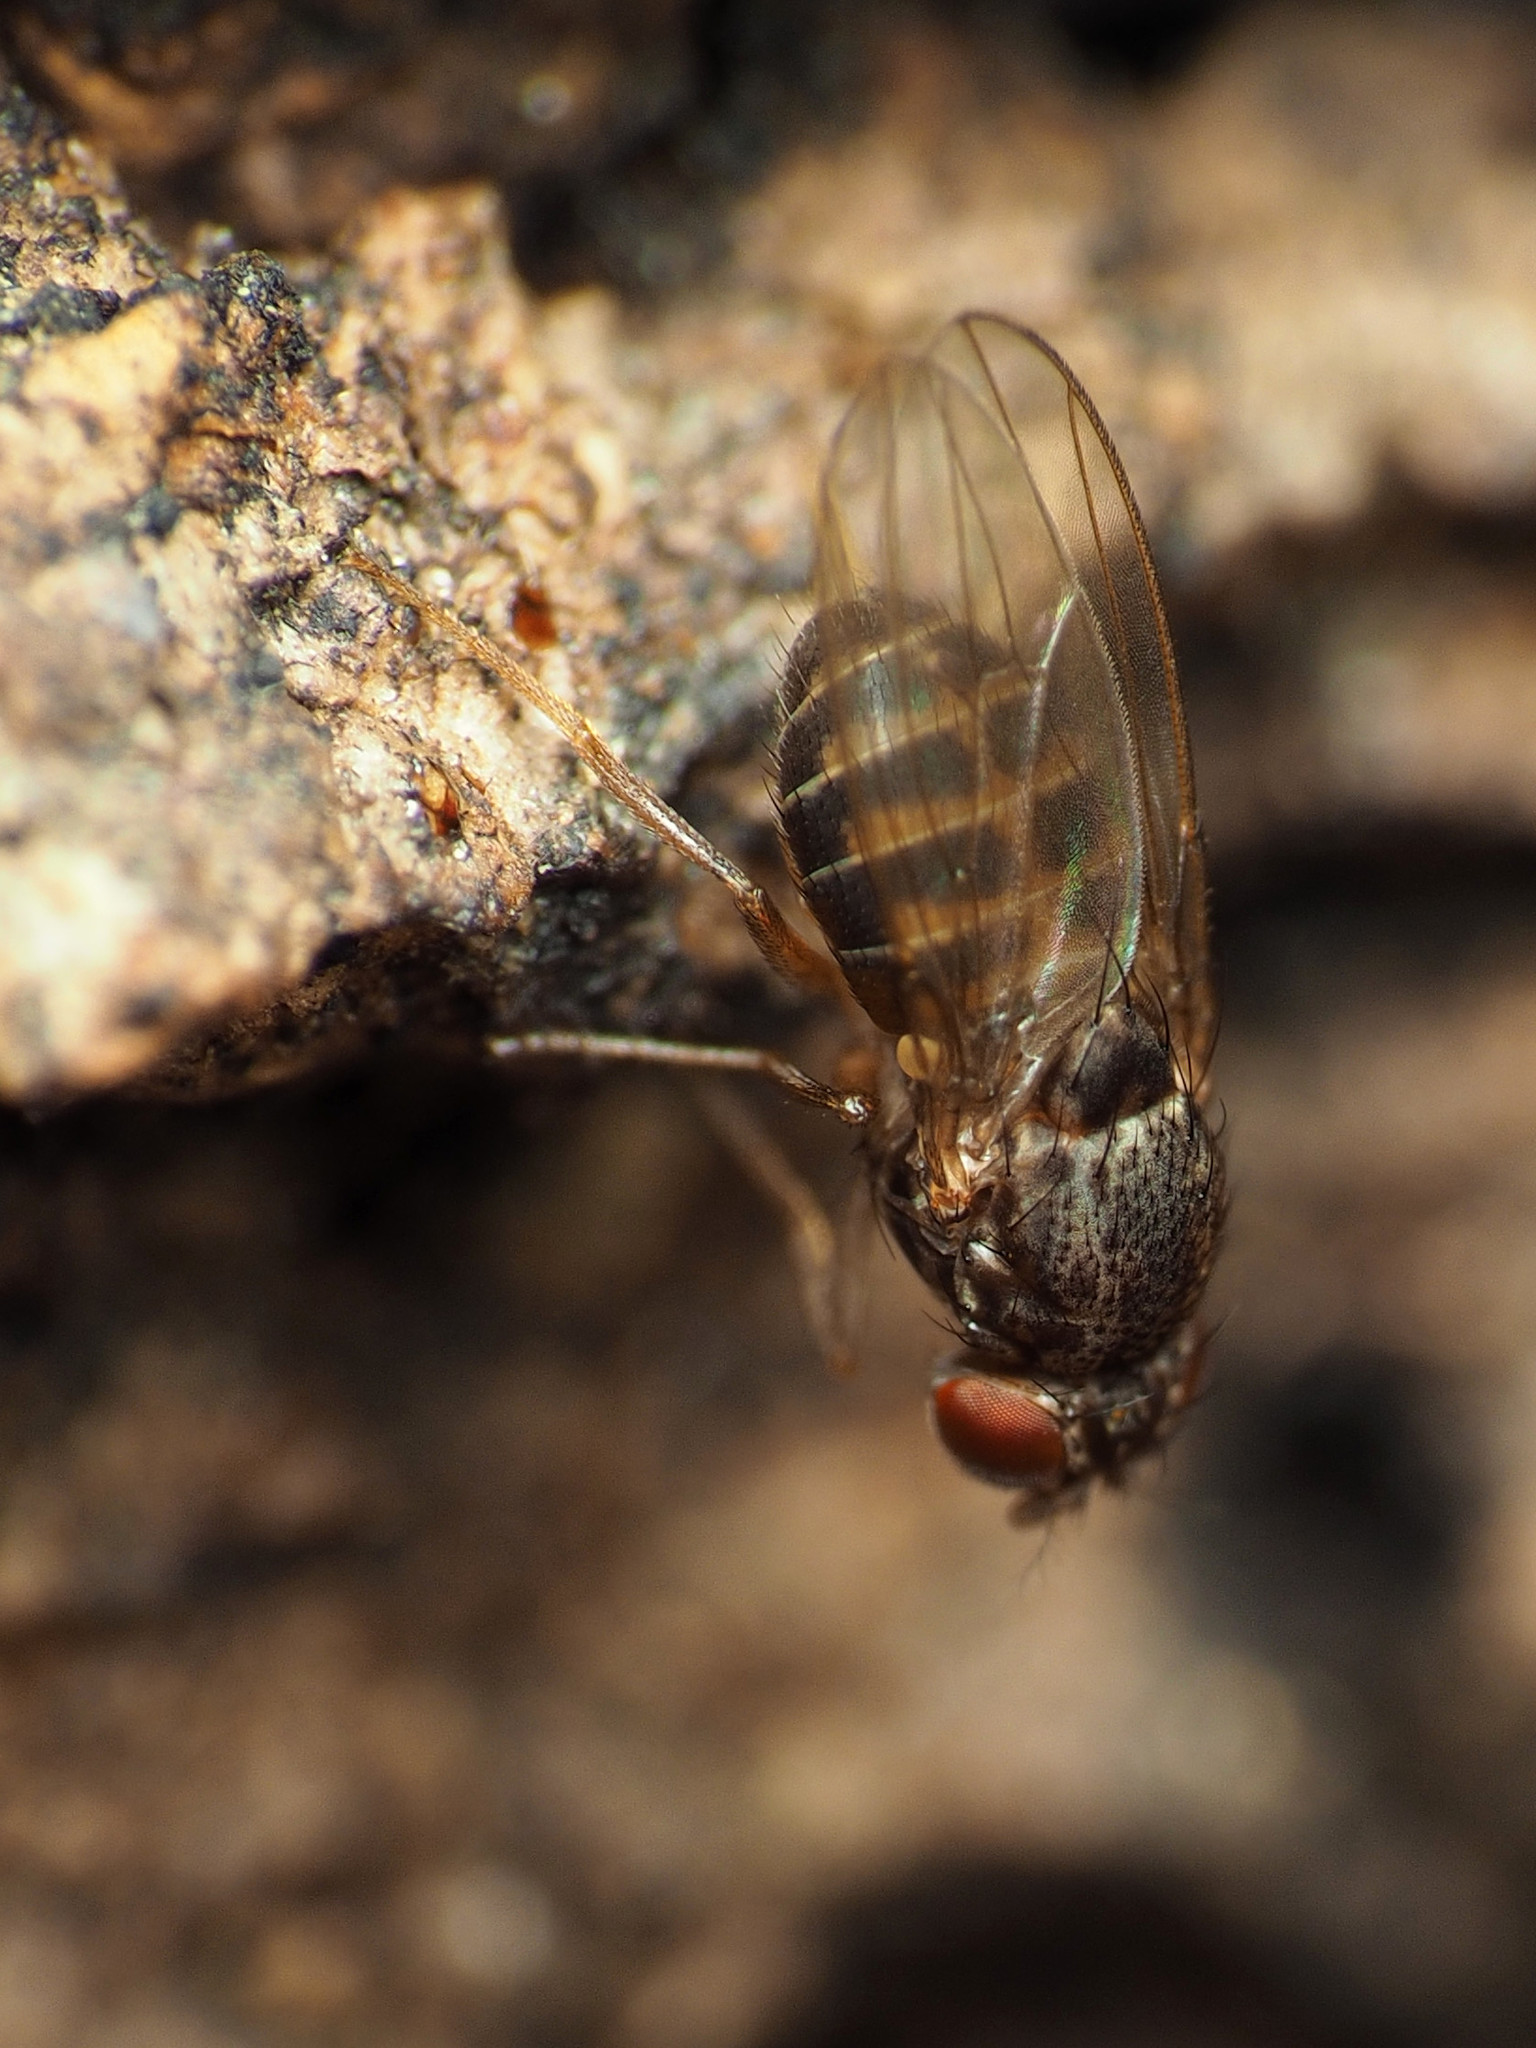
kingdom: Animalia
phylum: Arthropoda
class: Insecta
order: Diptera
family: Drosophilidae
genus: Drosophila
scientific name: Drosophila hydei
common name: Pomace fly
